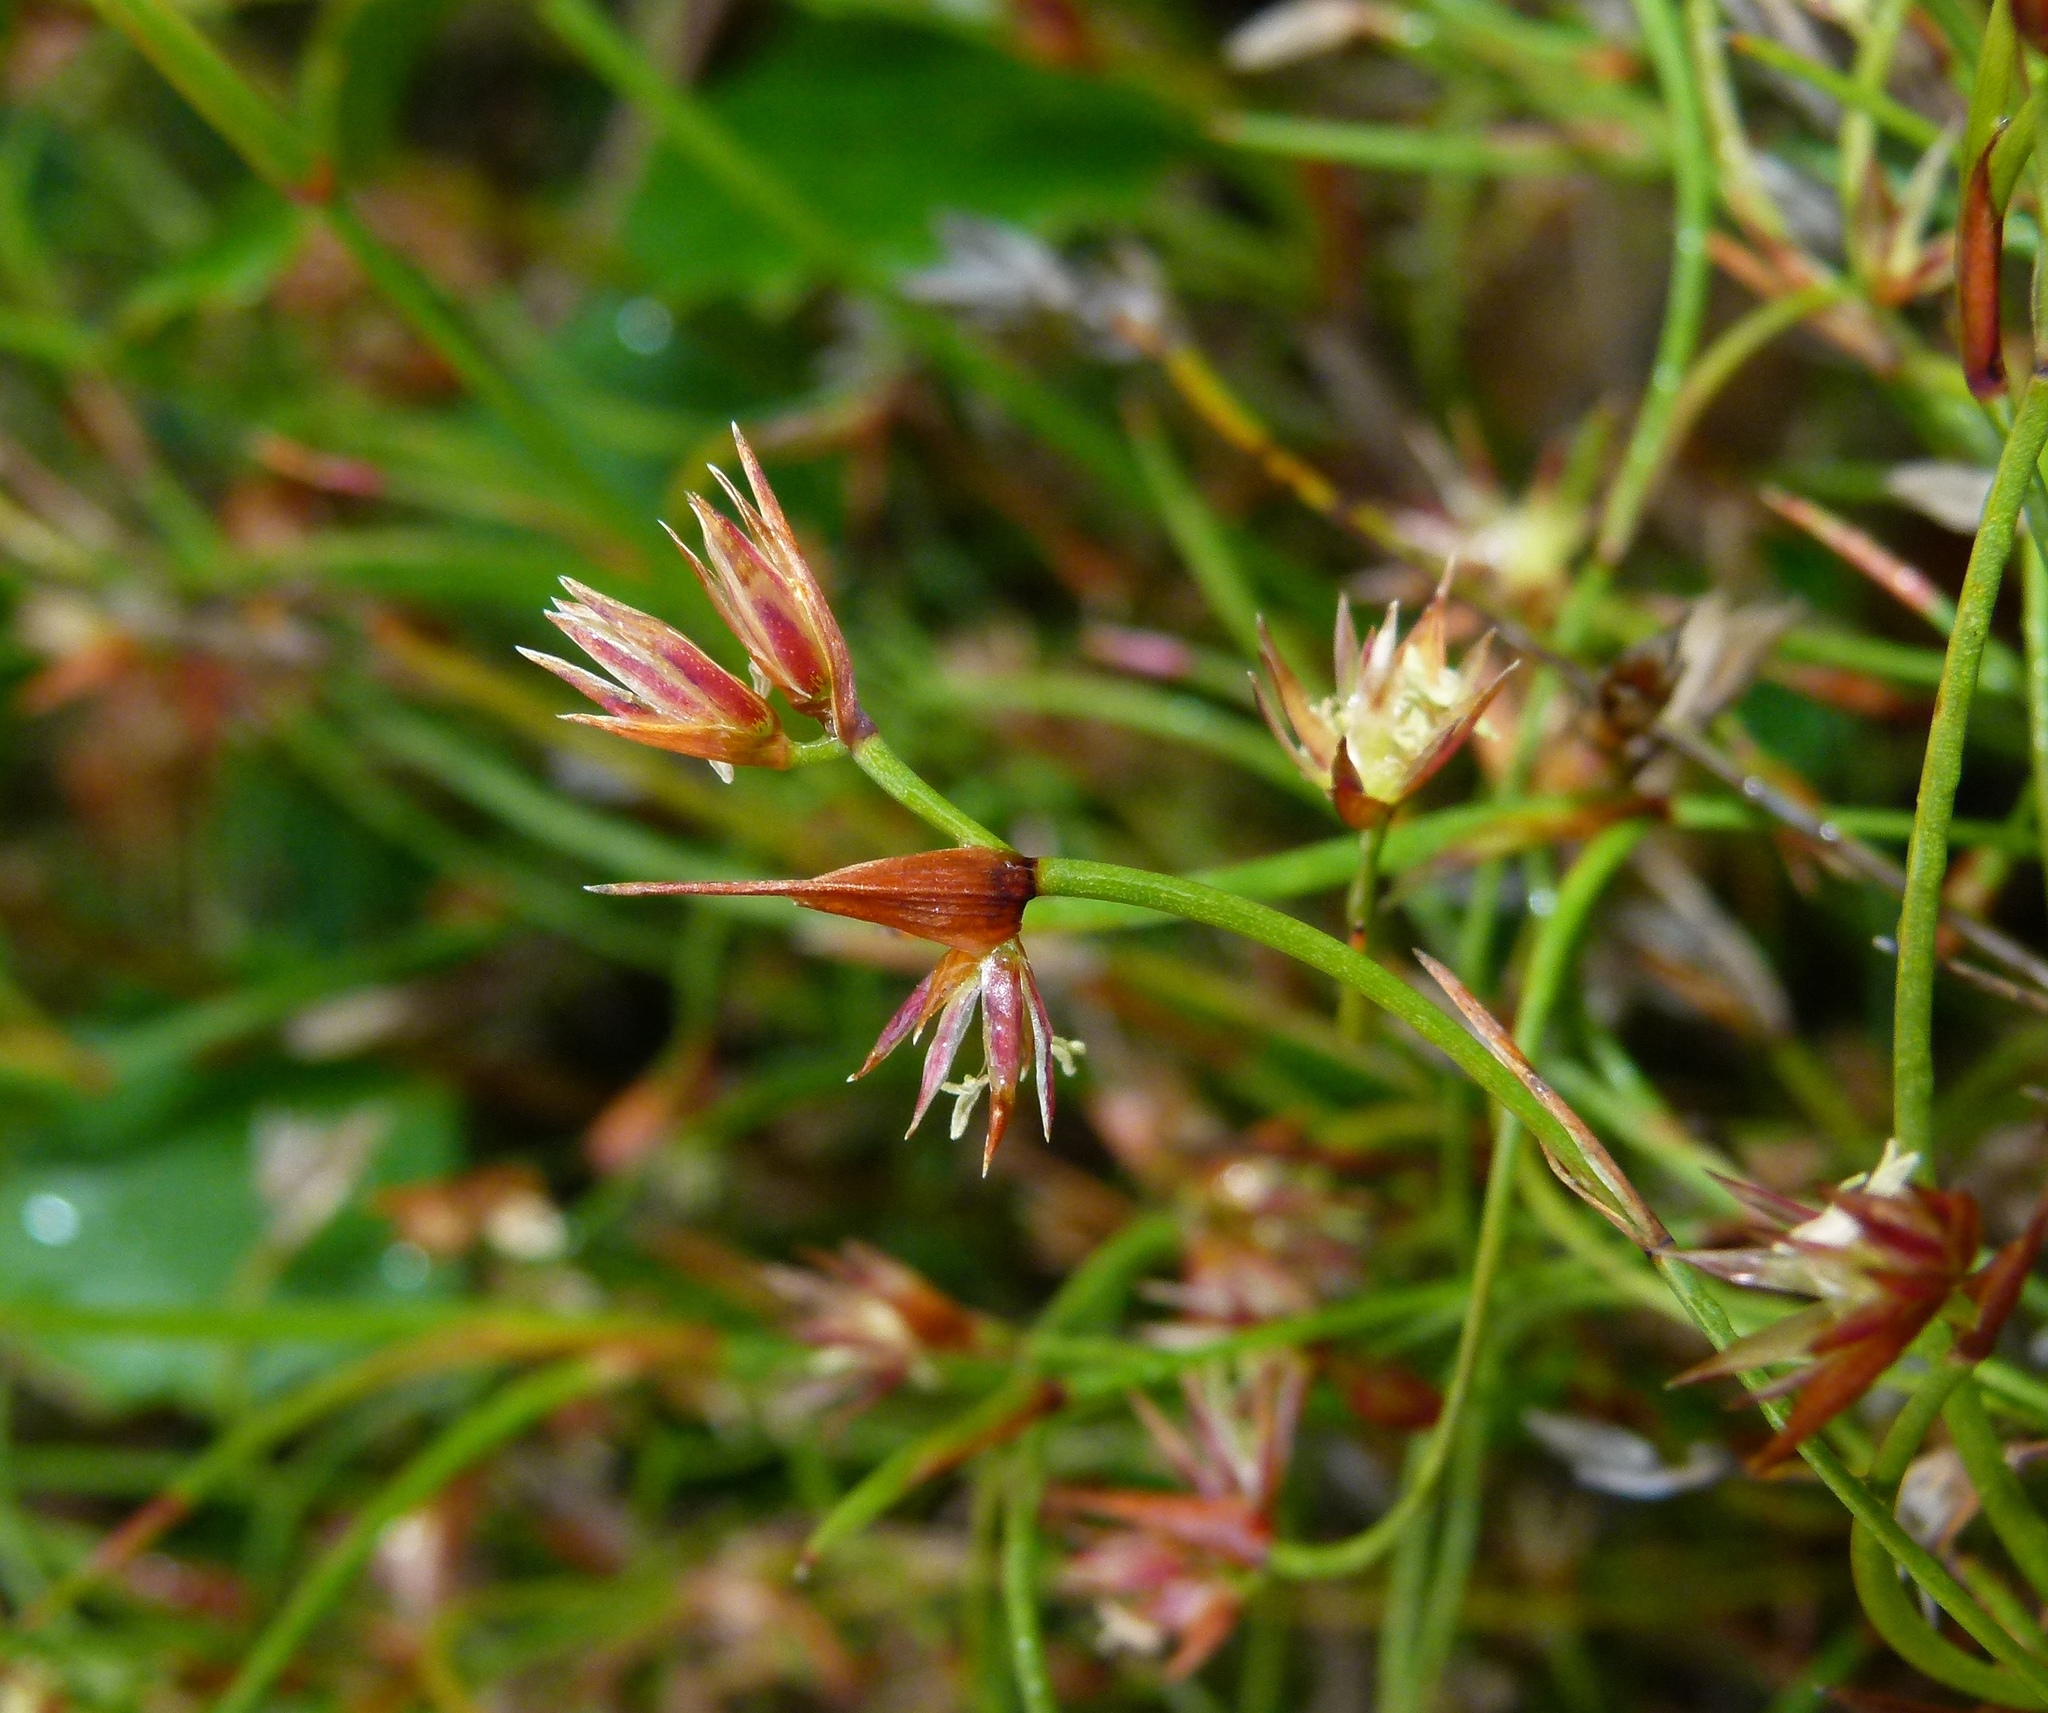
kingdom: Plantae
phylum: Tracheophyta
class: Liliopsida
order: Poales
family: Restionaceae
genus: Anarthria
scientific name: Anarthria prolifera
